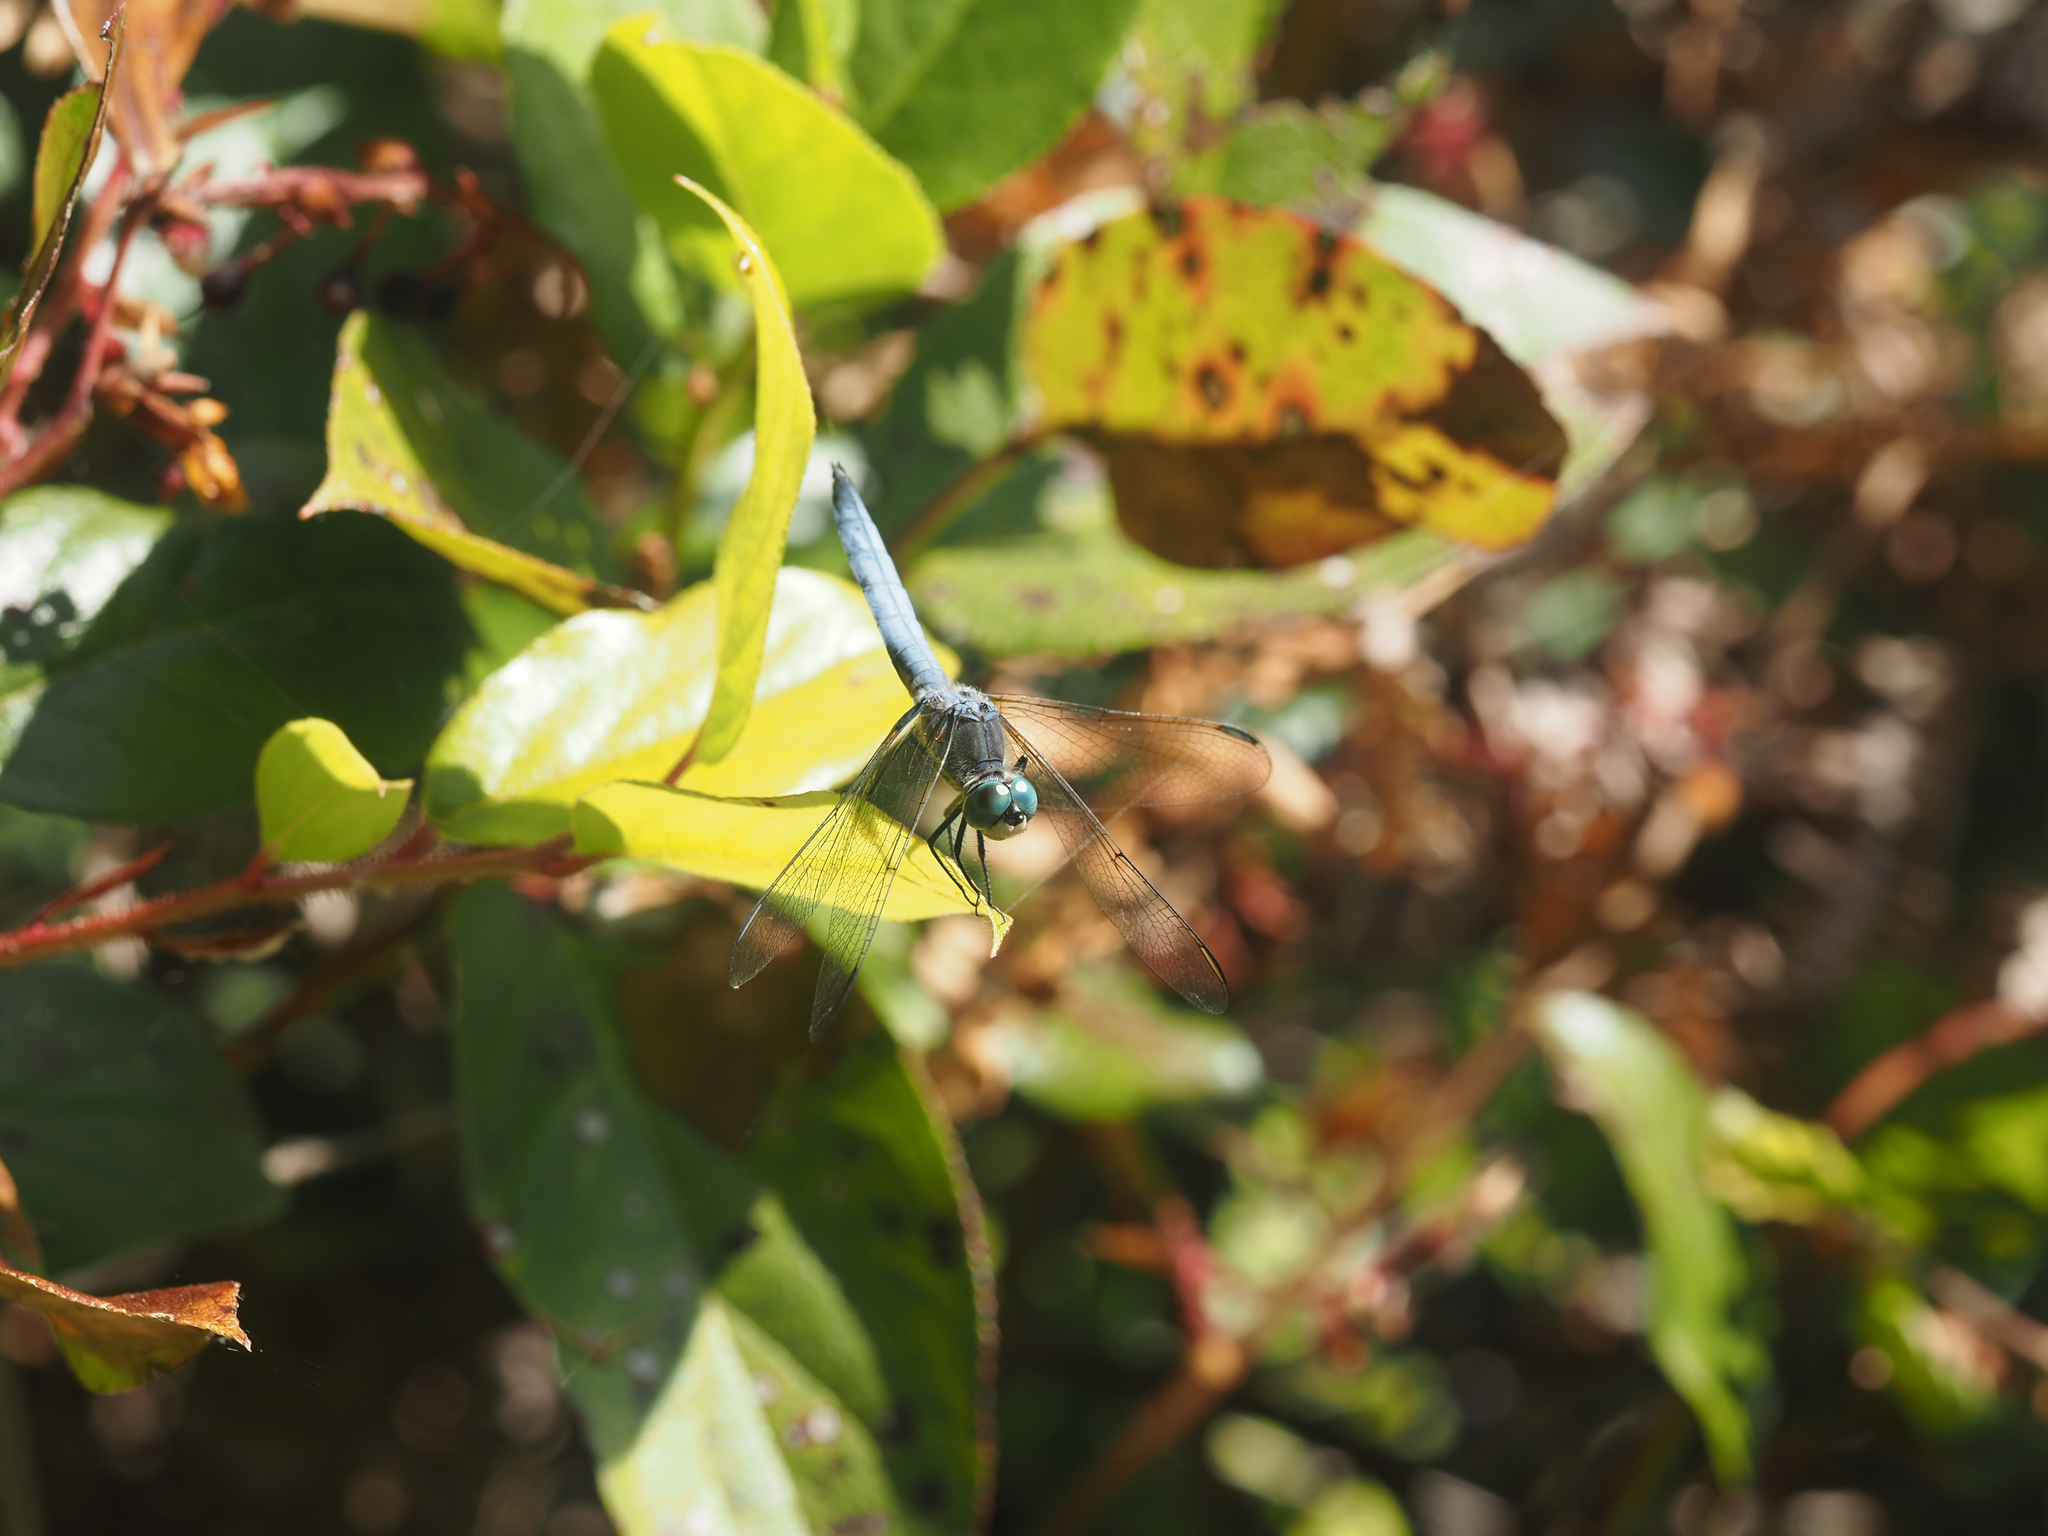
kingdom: Animalia
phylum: Arthropoda
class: Insecta
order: Odonata
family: Libellulidae
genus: Pachydiplax
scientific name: Pachydiplax longipennis
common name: Blue dasher
